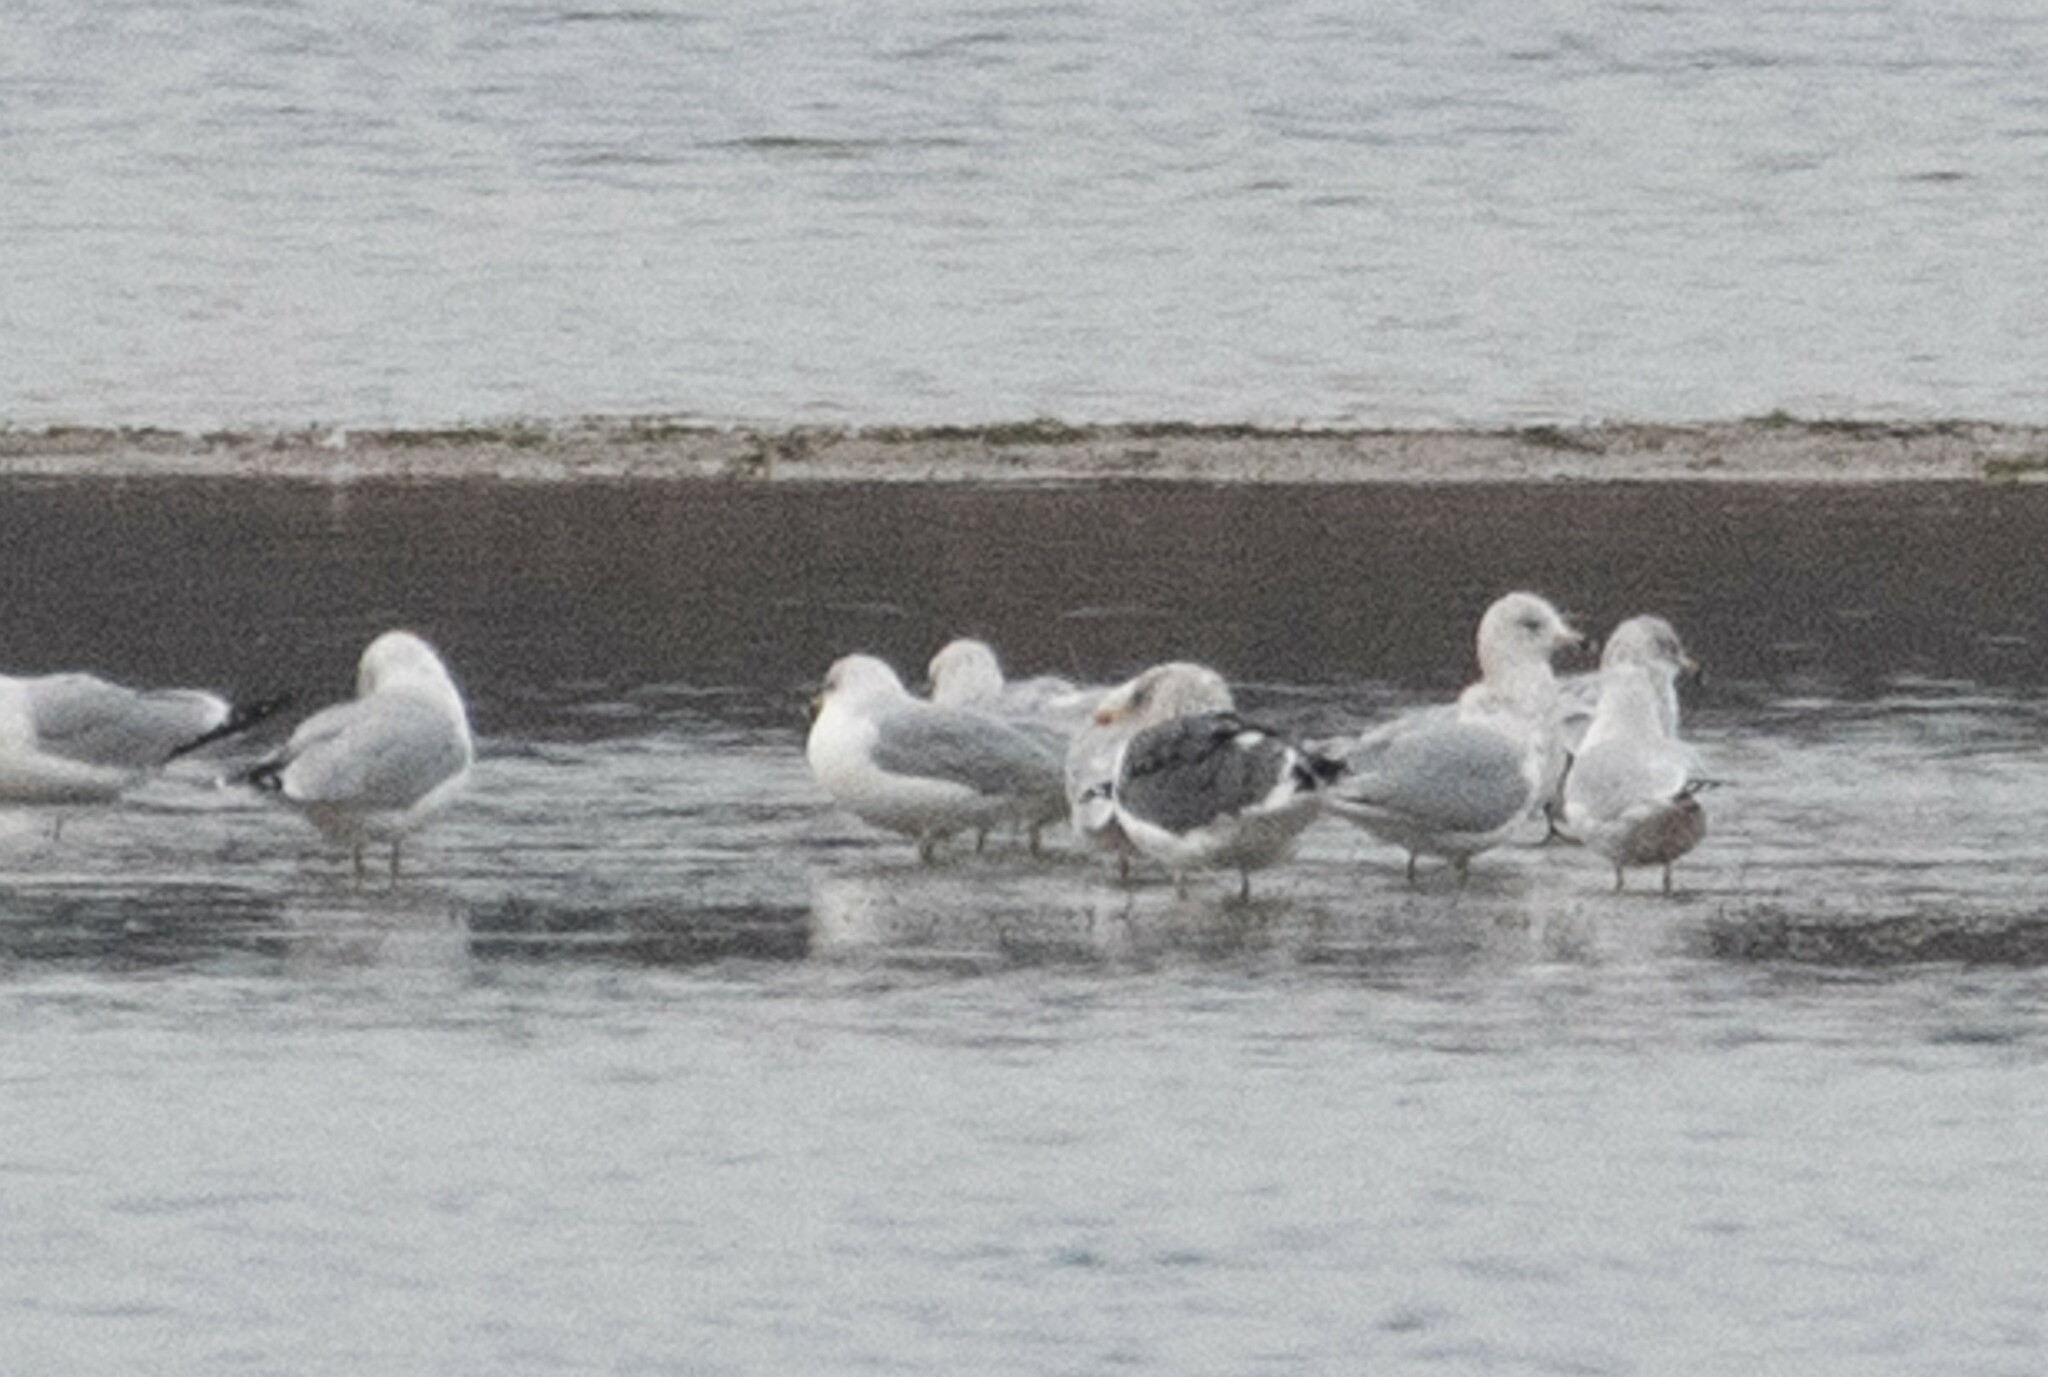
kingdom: Animalia
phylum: Chordata
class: Aves
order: Charadriiformes
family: Laridae
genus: Larus
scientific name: Larus fuscus
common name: Lesser black-backed gull
